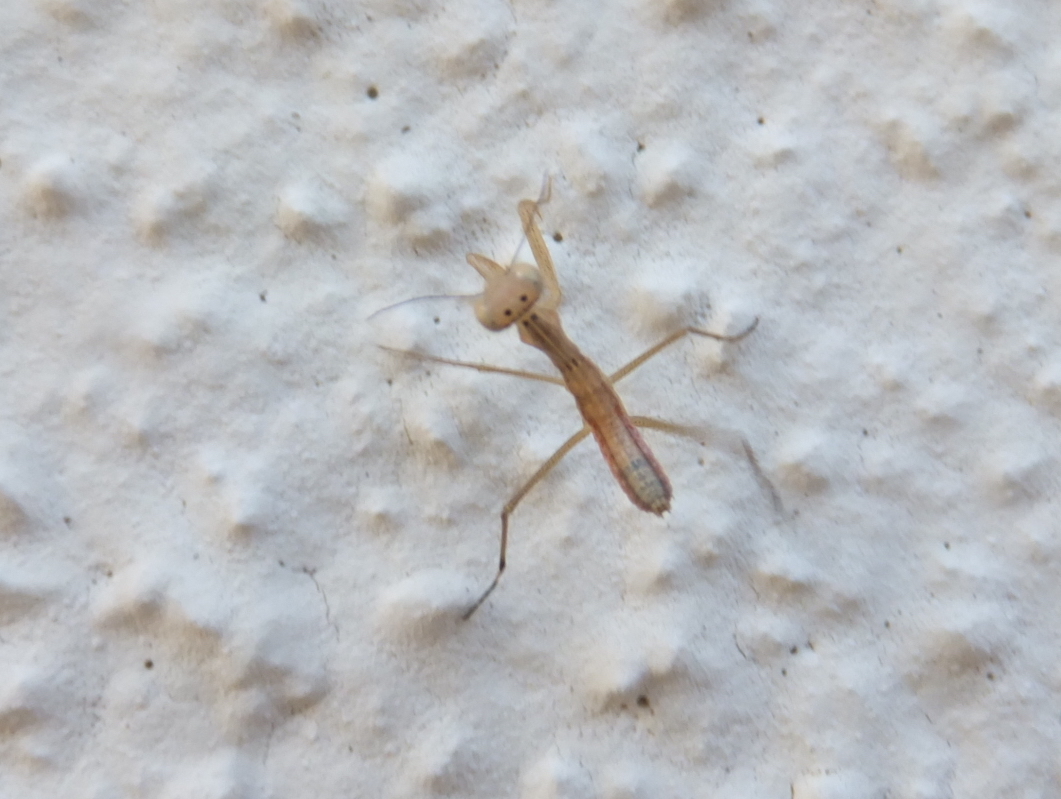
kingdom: Animalia
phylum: Arthropoda
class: Insecta
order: Mantodea
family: Mantidae
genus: Mantis
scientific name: Mantis religiosa
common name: Praying mantis
